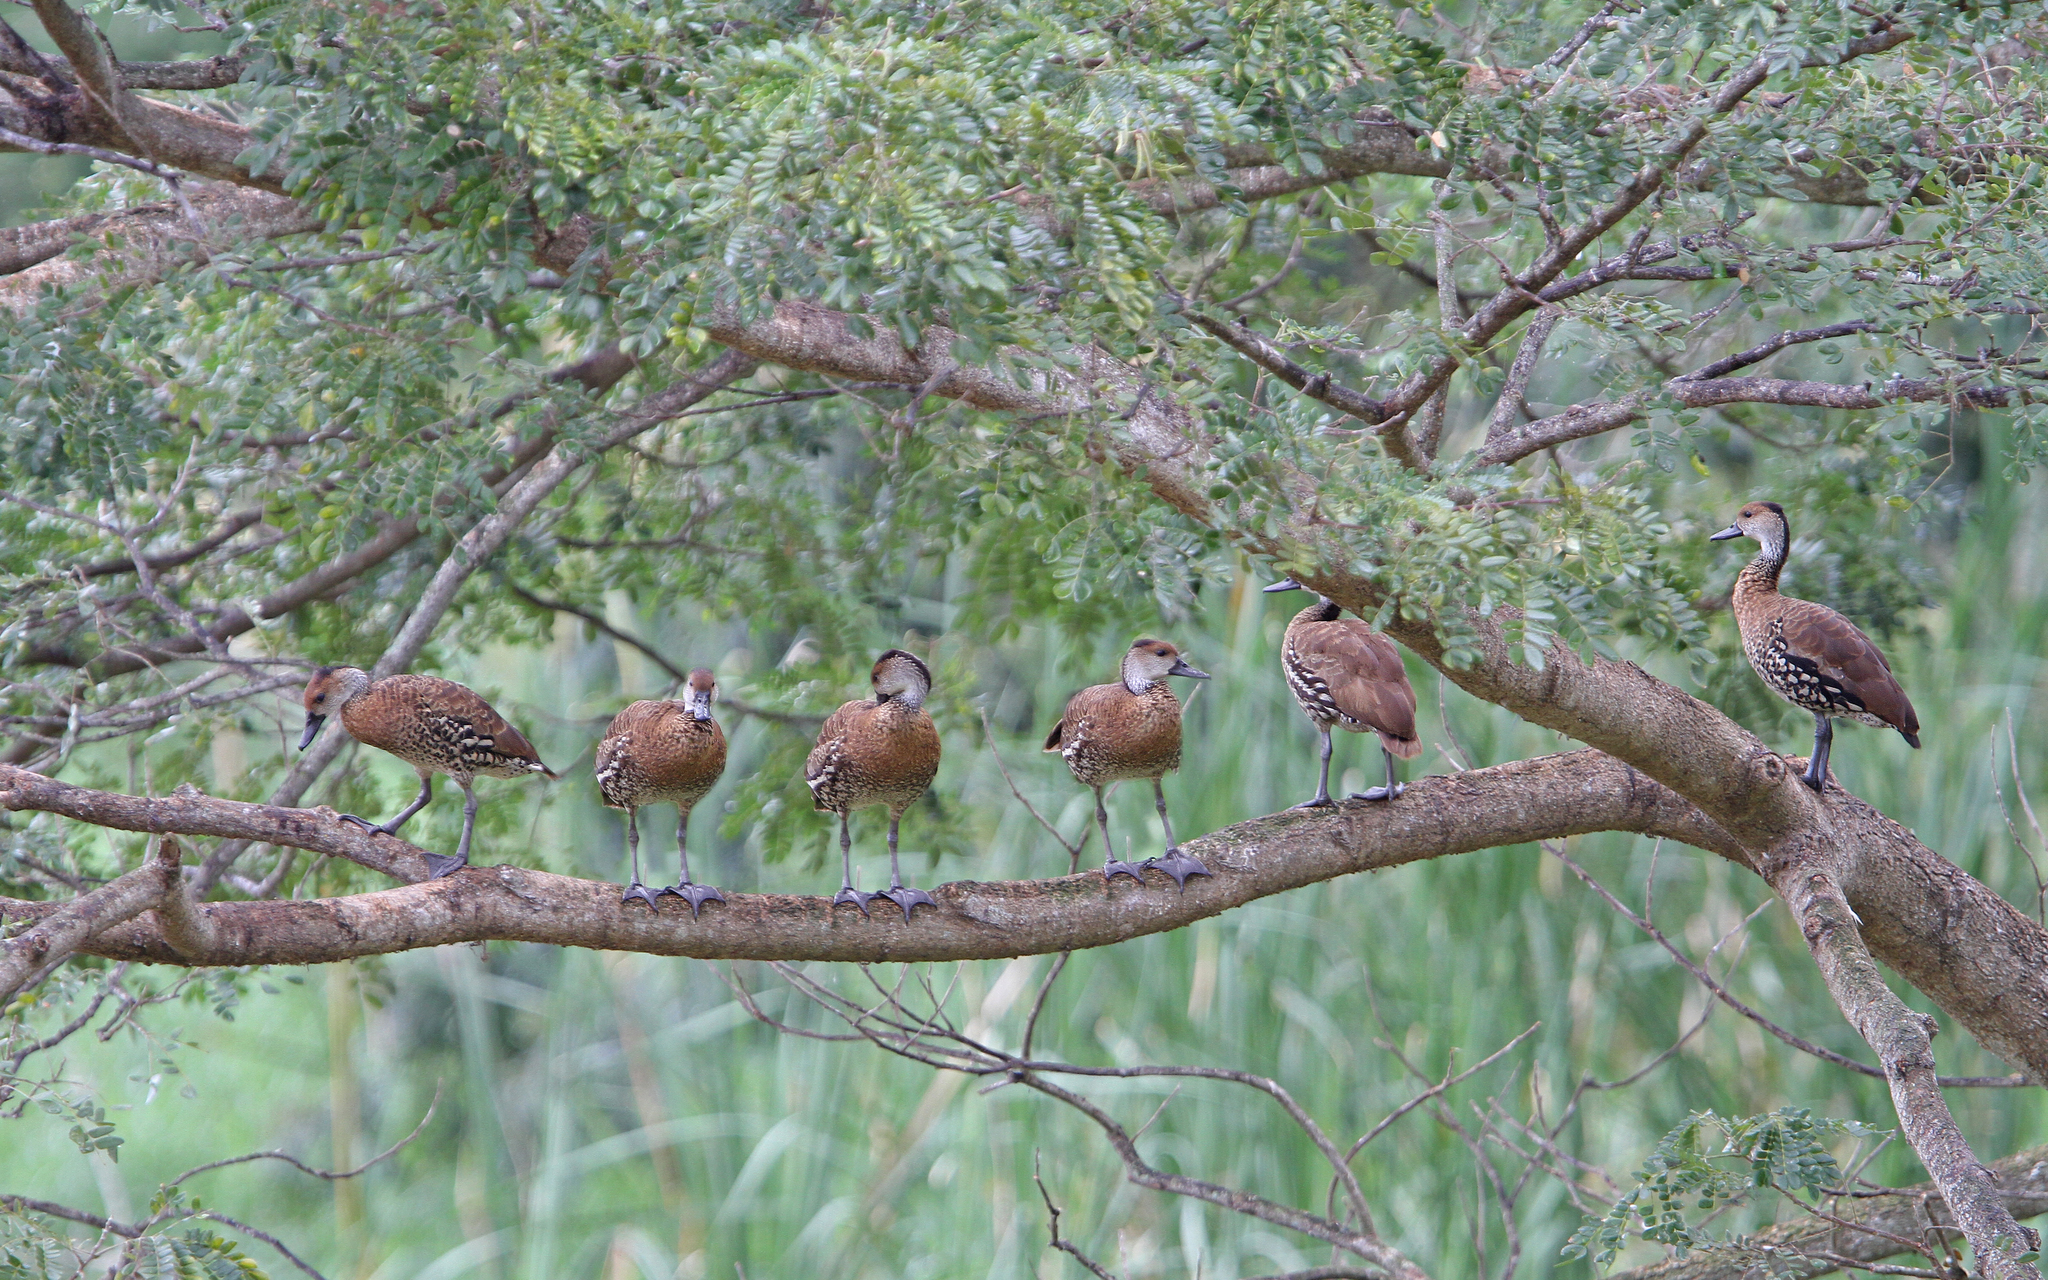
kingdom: Animalia
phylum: Chordata
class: Aves
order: Anseriformes
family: Anatidae
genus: Dendrocygna
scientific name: Dendrocygna arborea
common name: West indian whistling duck
